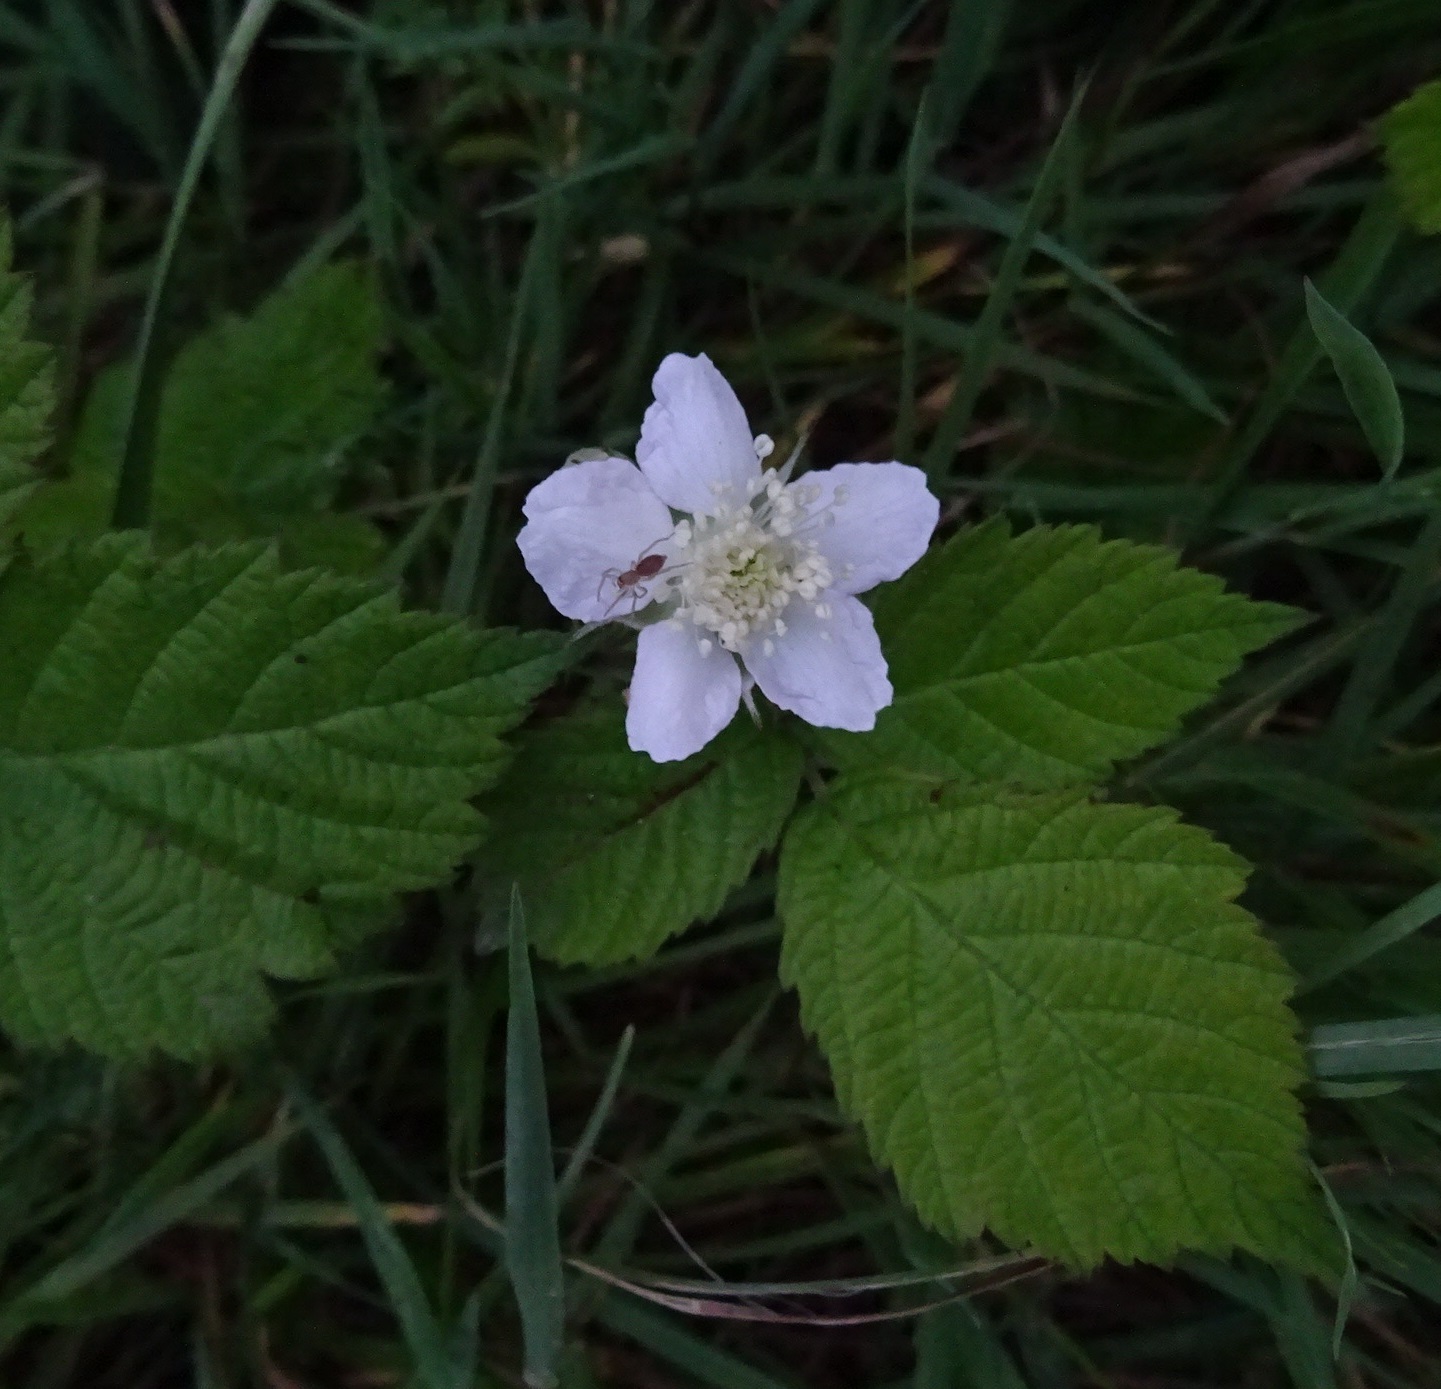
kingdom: Plantae
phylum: Tracheophyta
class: Magnoliopsida
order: Rosales
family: Rosaceae
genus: Rubus
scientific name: Rubus caesius
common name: Dewberry
